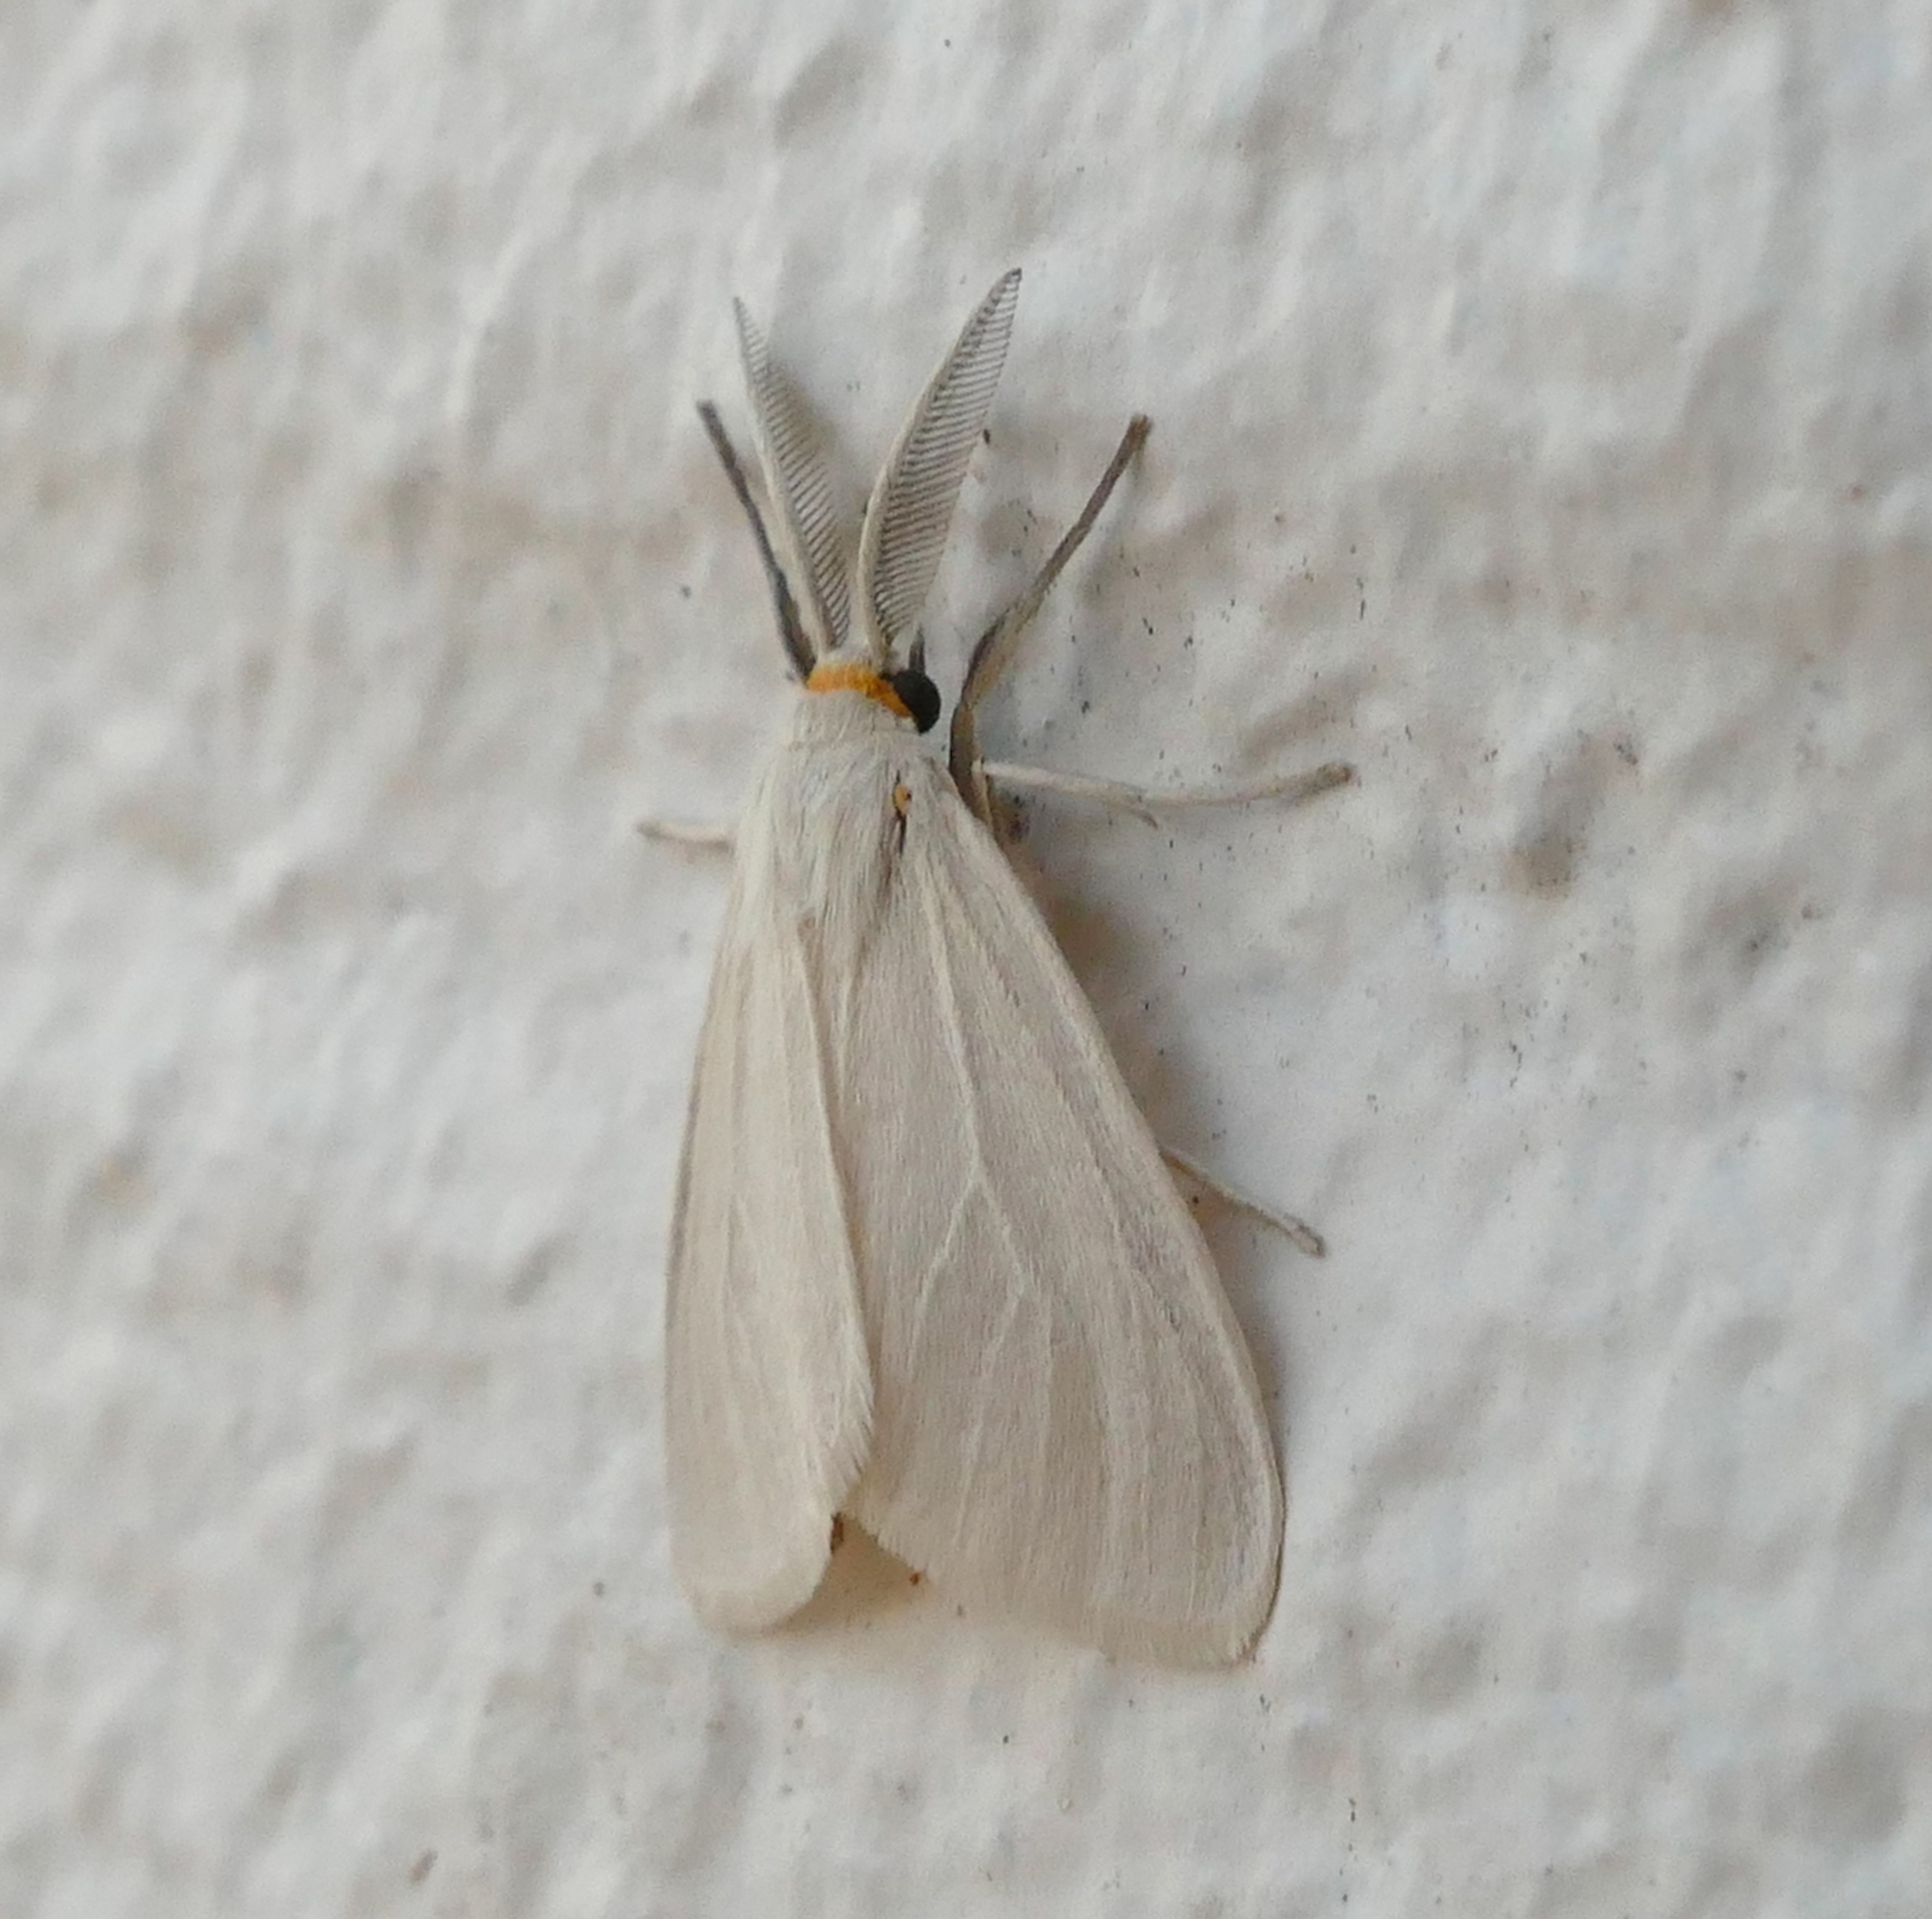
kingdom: Animalia
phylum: Arthropoda
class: Insecta
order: Lepidoptera
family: Erebidae
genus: Neoplynes
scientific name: Neoplynes eudora
